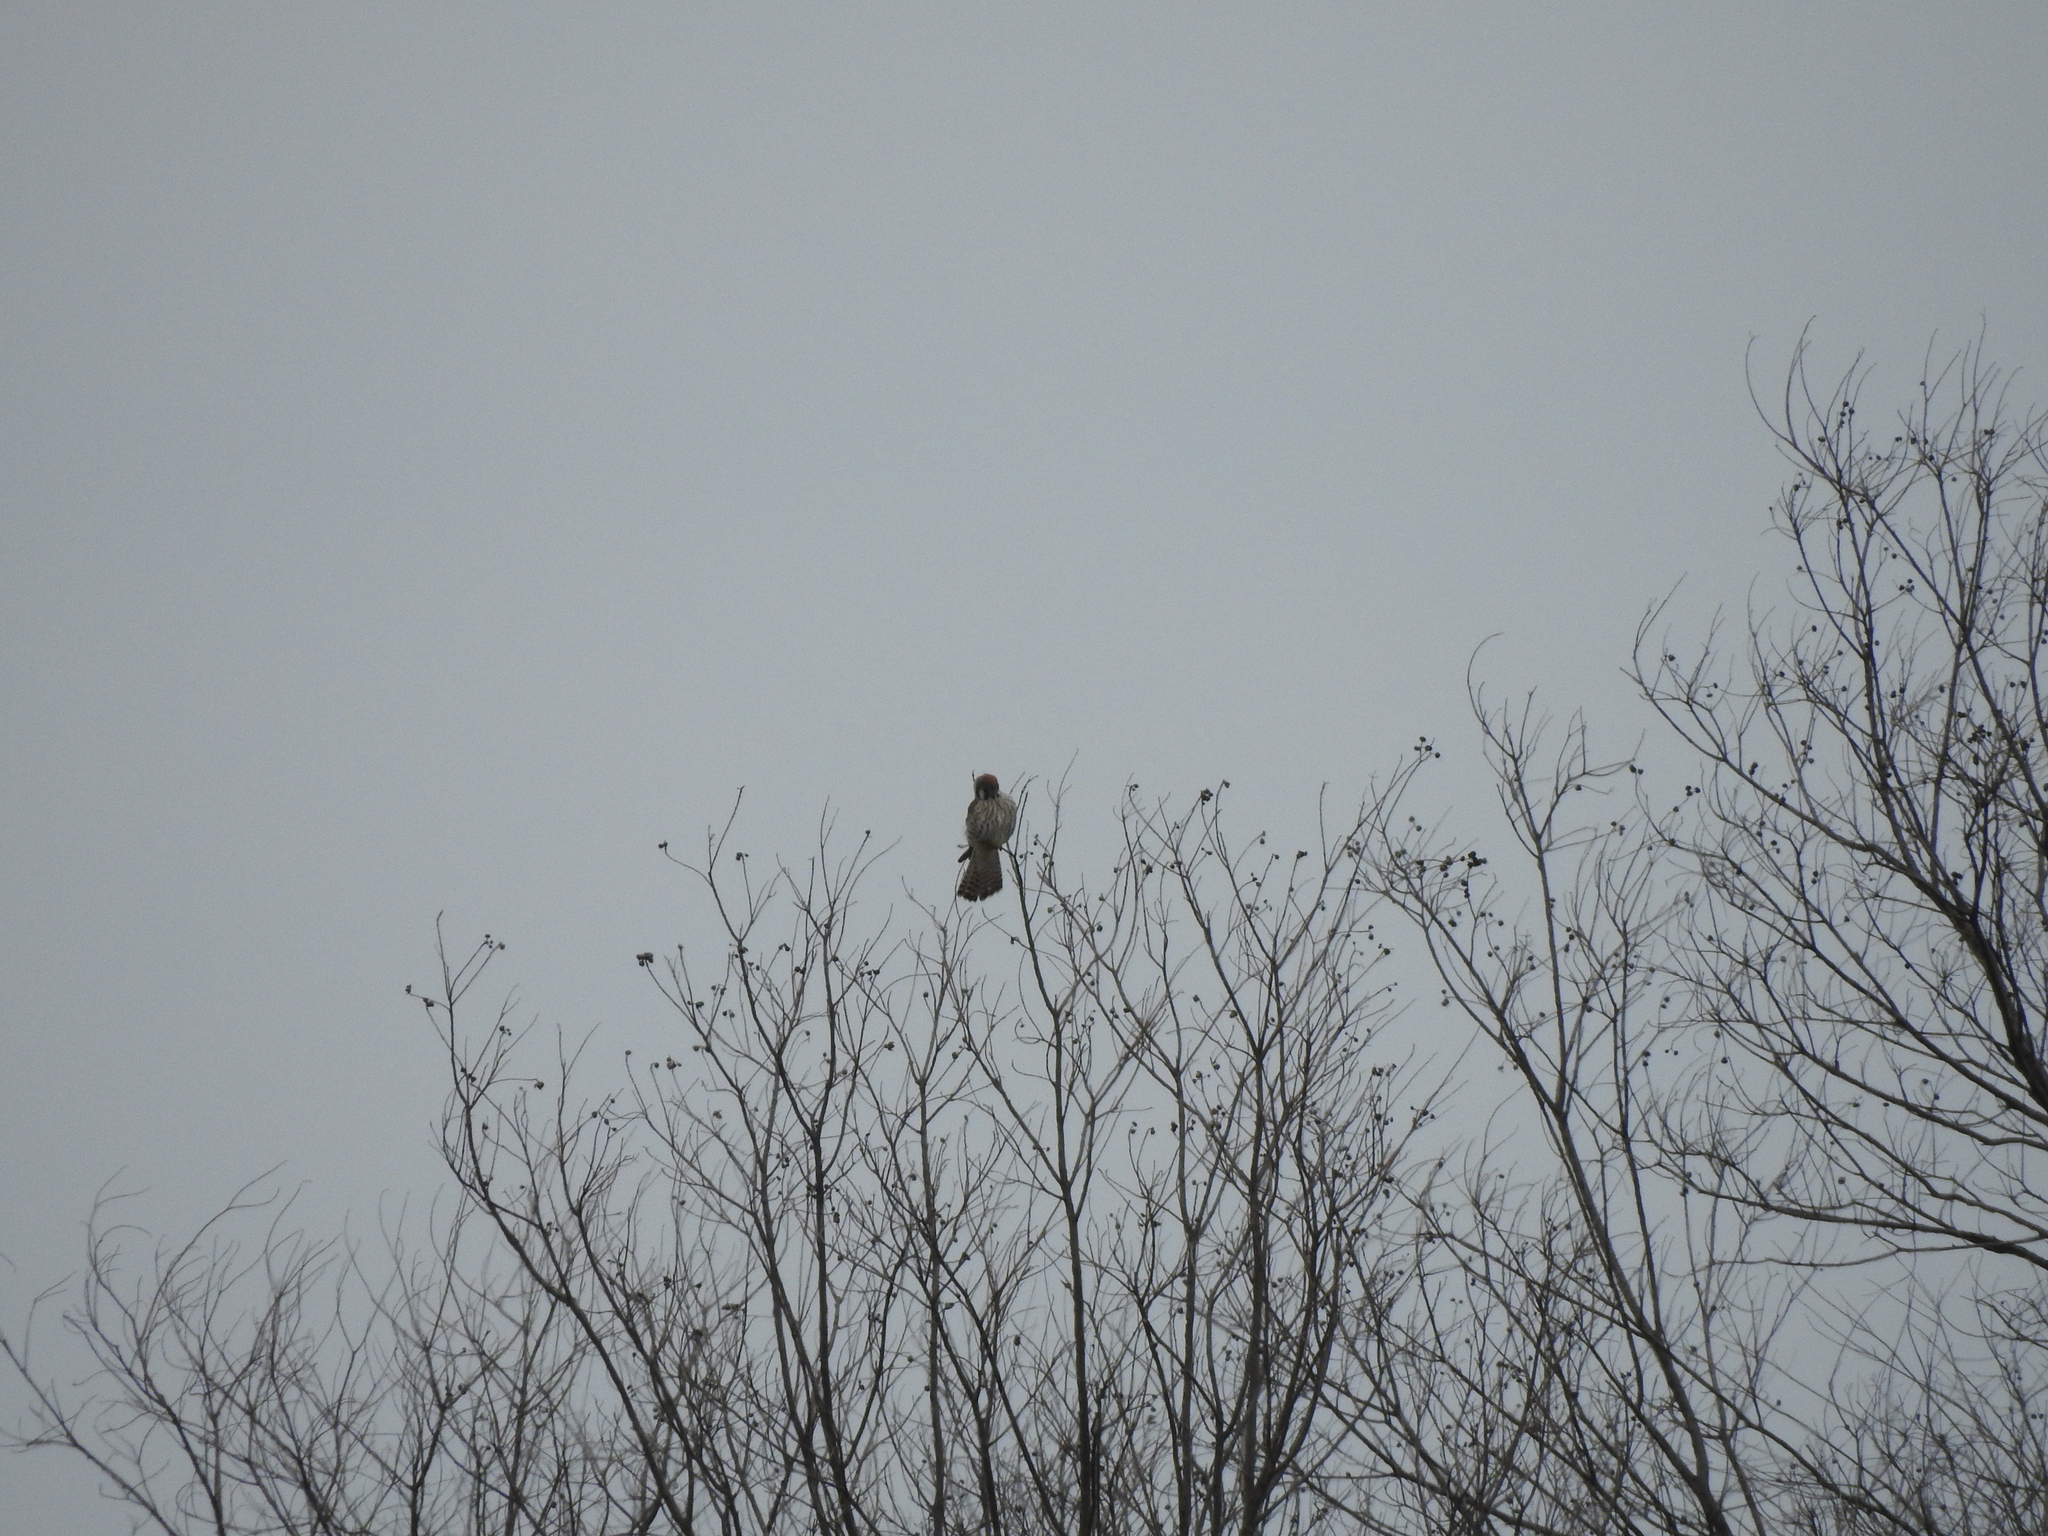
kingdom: Animalia
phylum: Chordata
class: Aves
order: Falconiformes
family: Falconidae
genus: Falco
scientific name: Falco sparverius
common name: American kestrel
